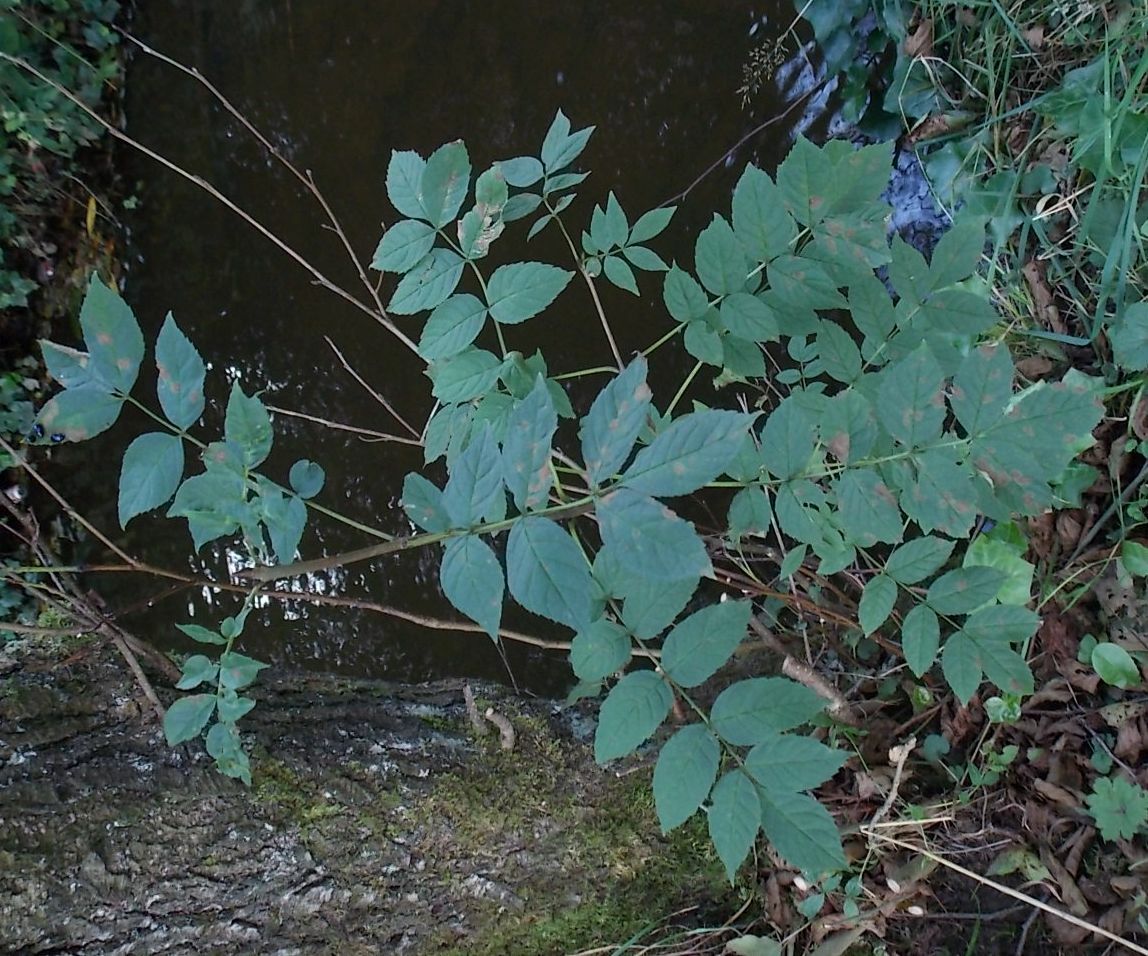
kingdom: Plantae
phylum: Tracheophyta
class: Magnoliopsida
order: Lamiales
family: Oleaceae
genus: Fraxinus
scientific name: Fraxinus excelsior
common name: European ash
